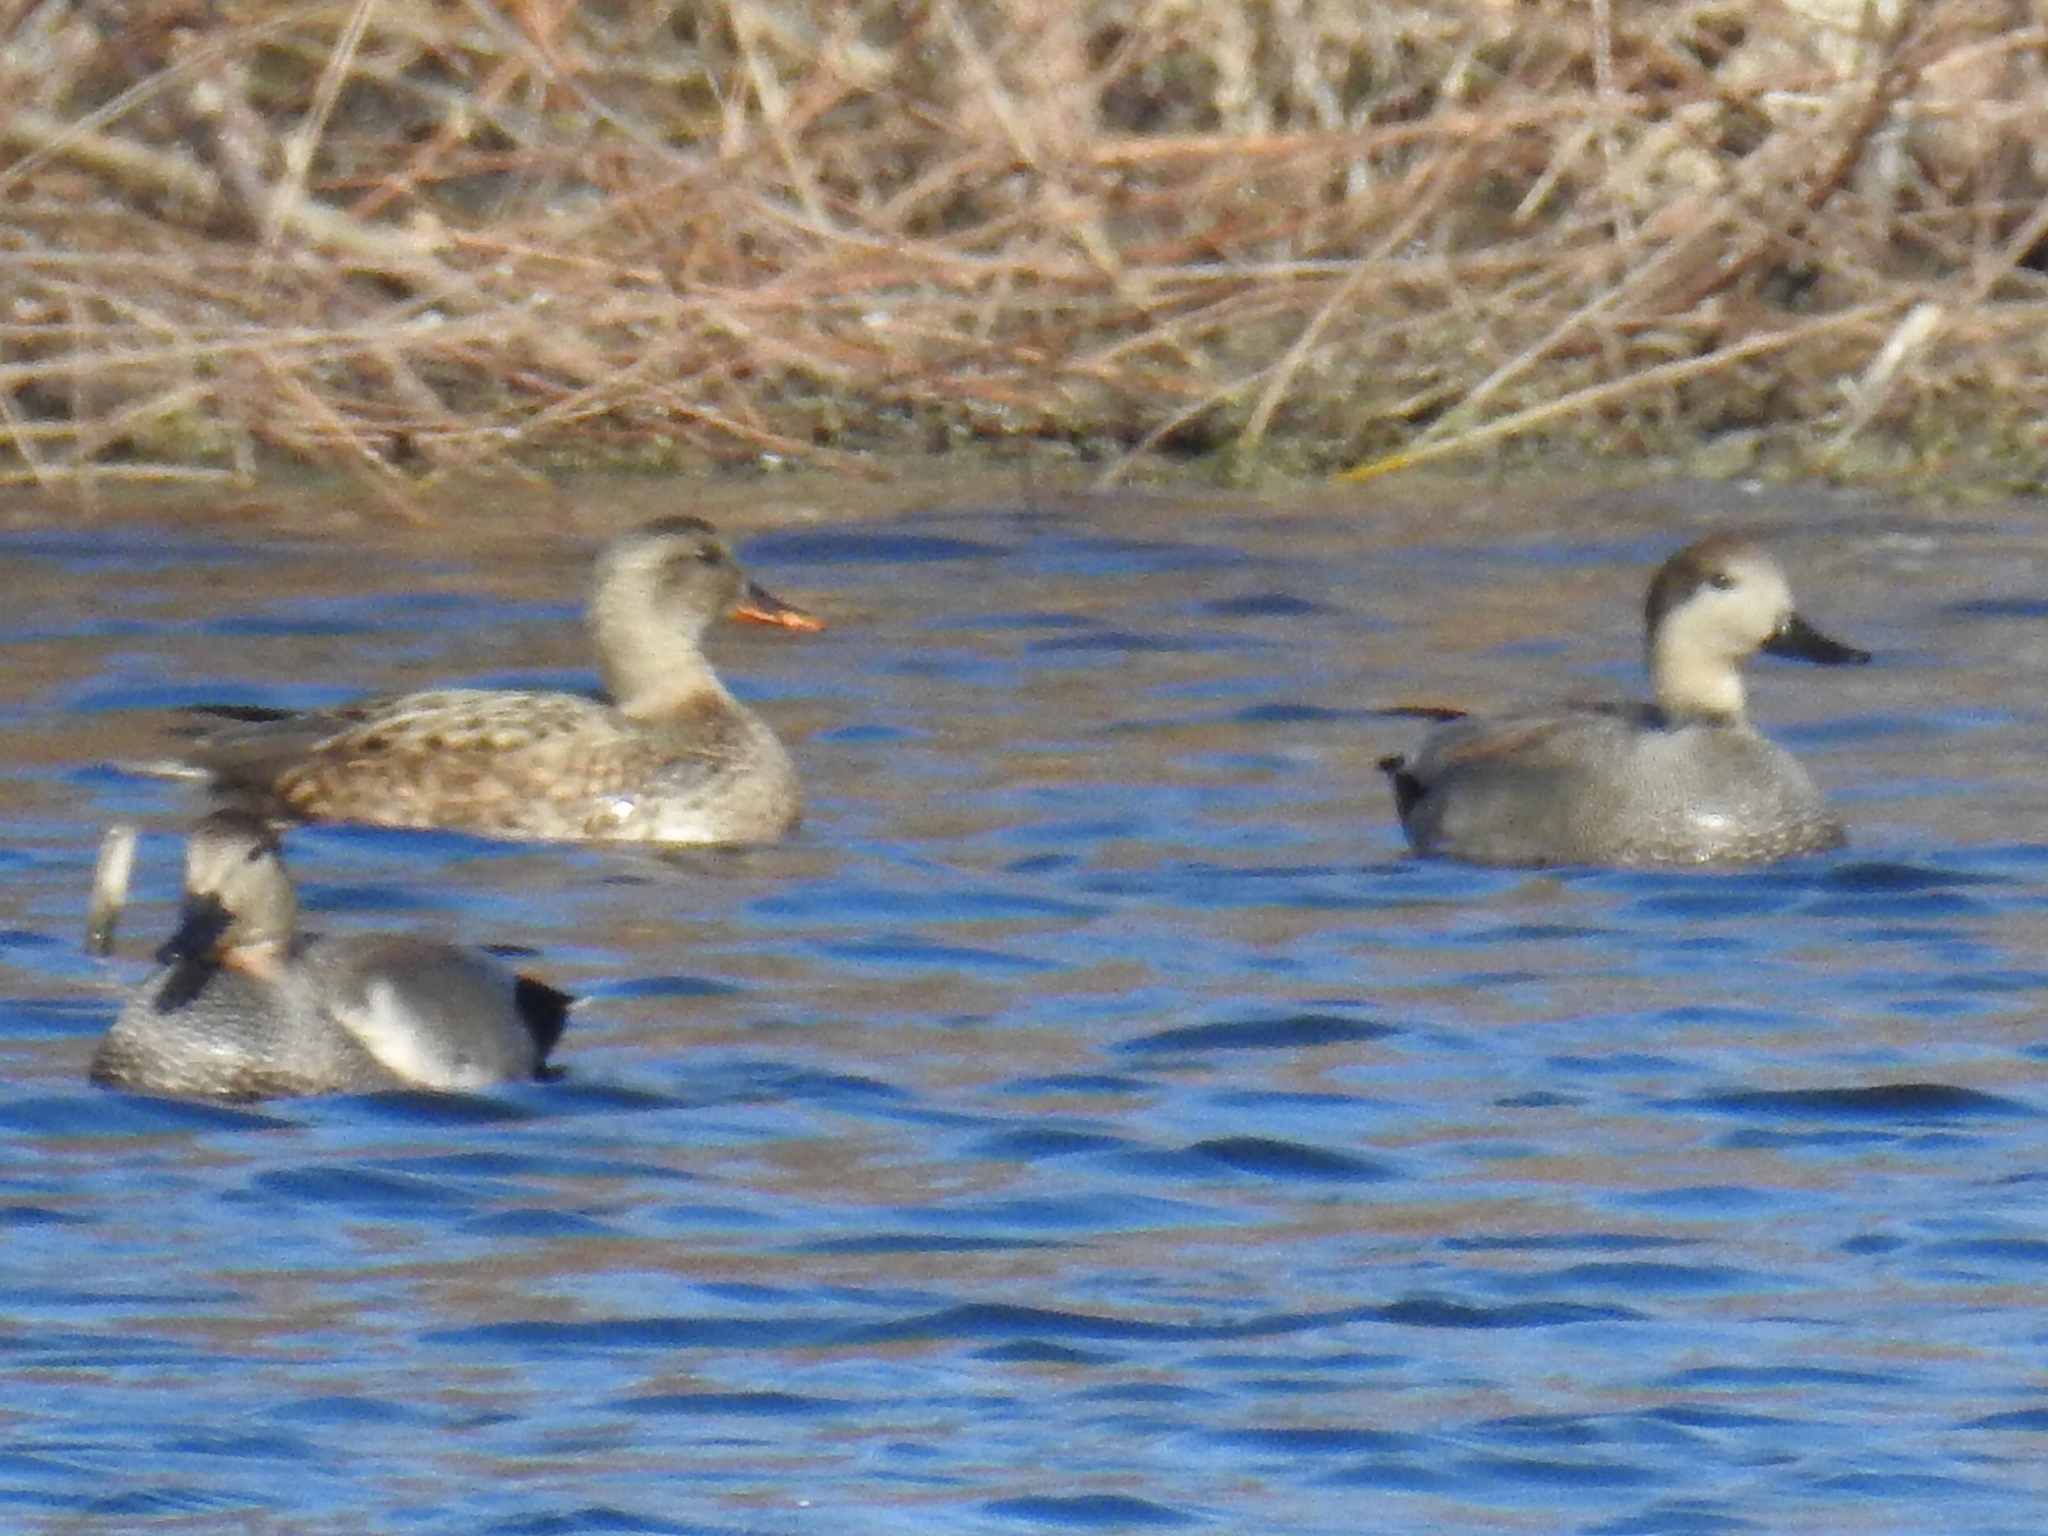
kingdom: Animalia
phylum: Chordata
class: Aves
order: Anseriformes
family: Anatidae
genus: Mareca
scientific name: Mareca strepera
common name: Gadwall
